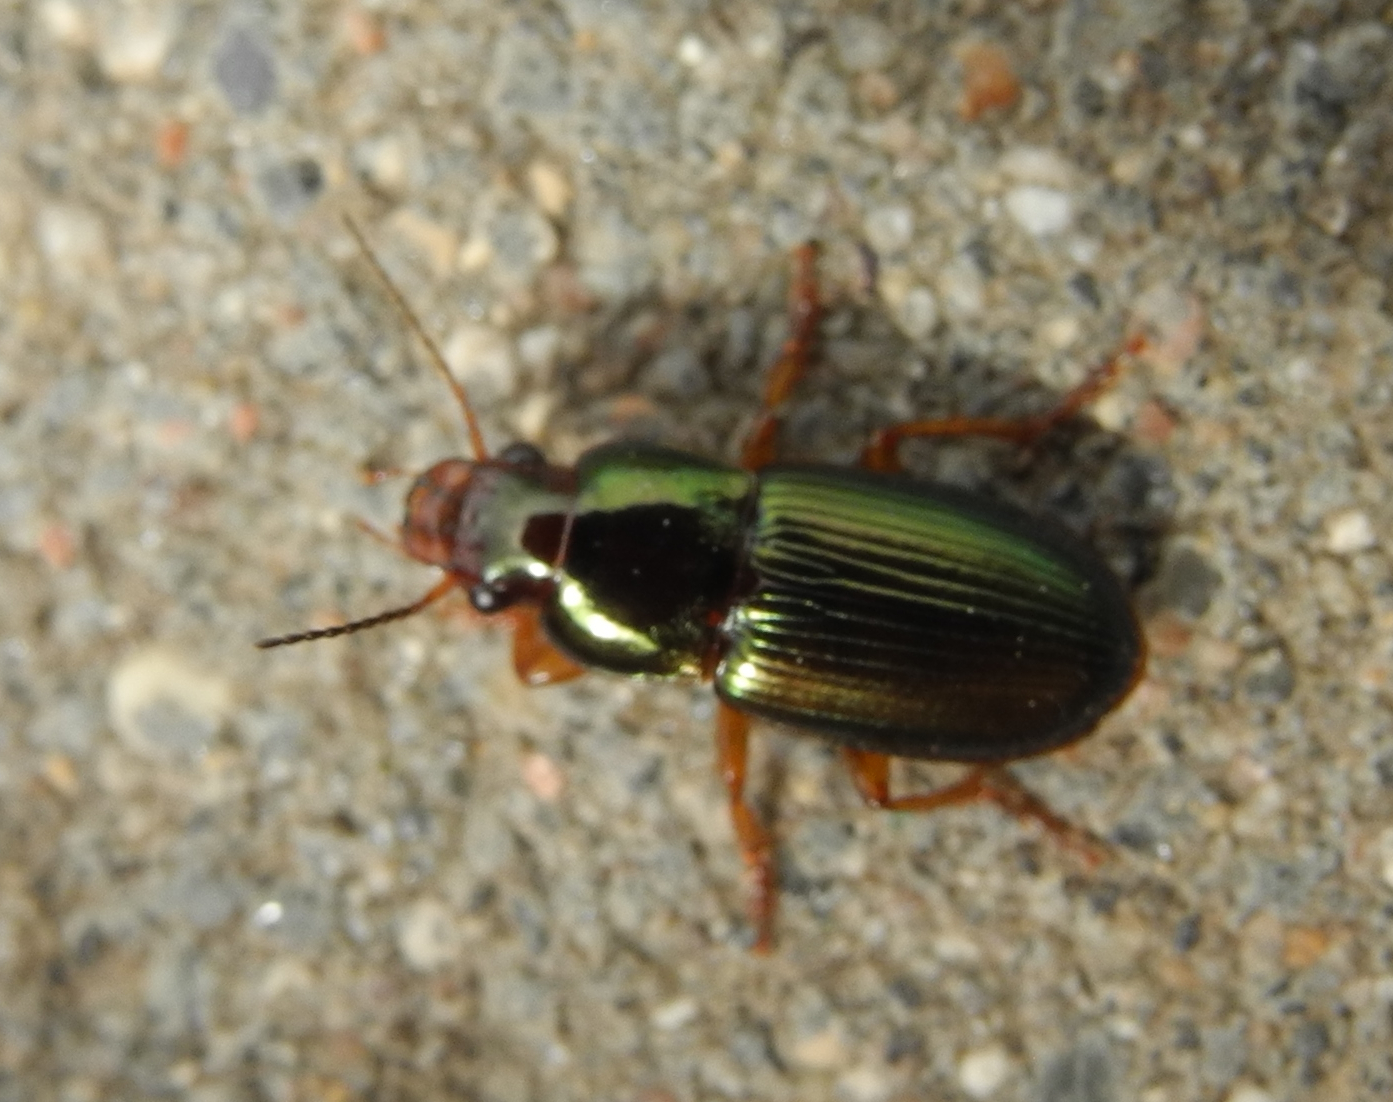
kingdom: Animalia
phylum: Arthropoda
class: Insecta
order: Coleoptera
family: Carabidae
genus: Harpalus
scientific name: Harpalus affinis
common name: Polychrome harp ground beetle
